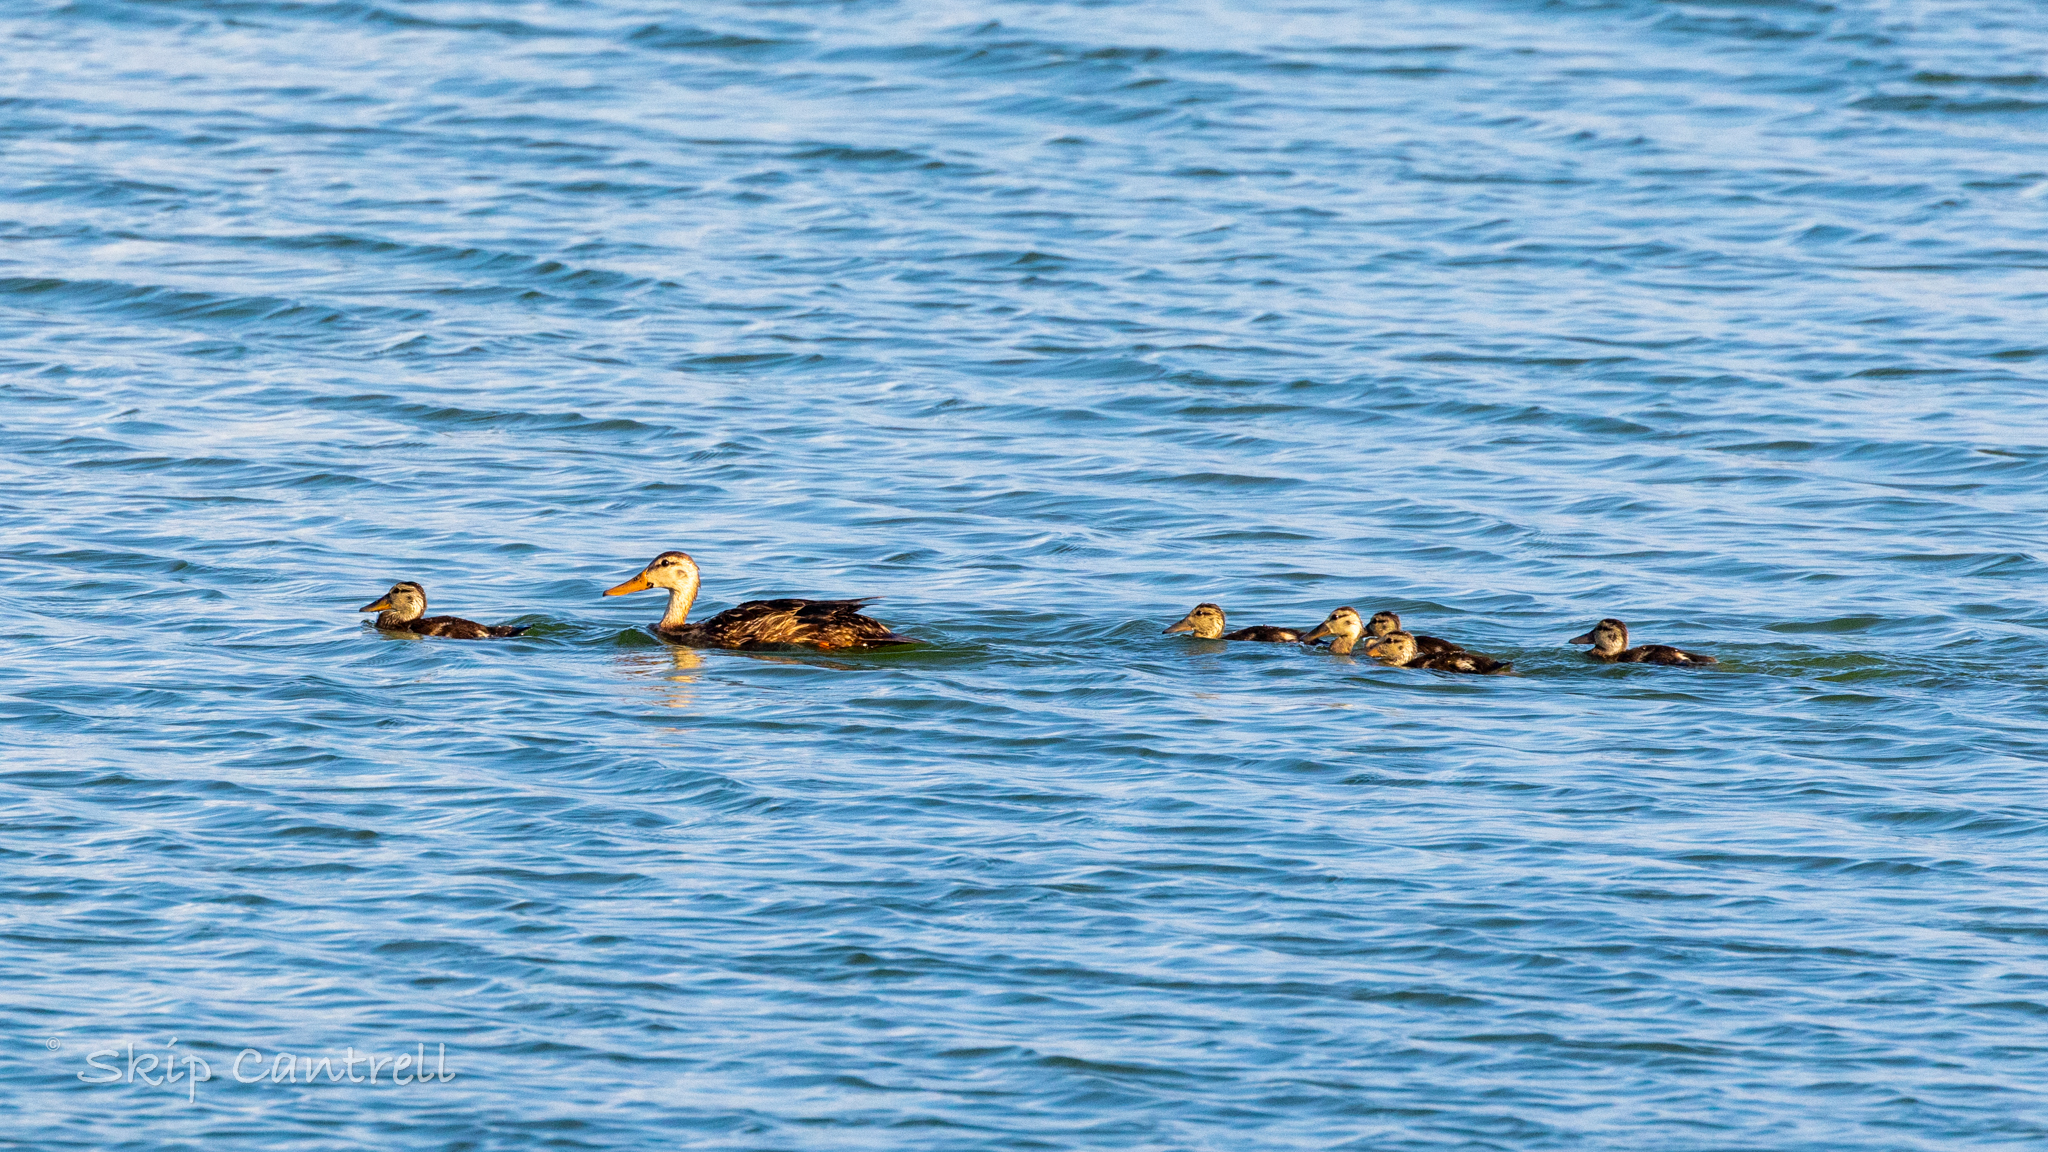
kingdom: Animalia
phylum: Chordata
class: Aves
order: Anseriformes
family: Anatidae
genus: Anas
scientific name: Anas fulvigula
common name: Mottled duck
